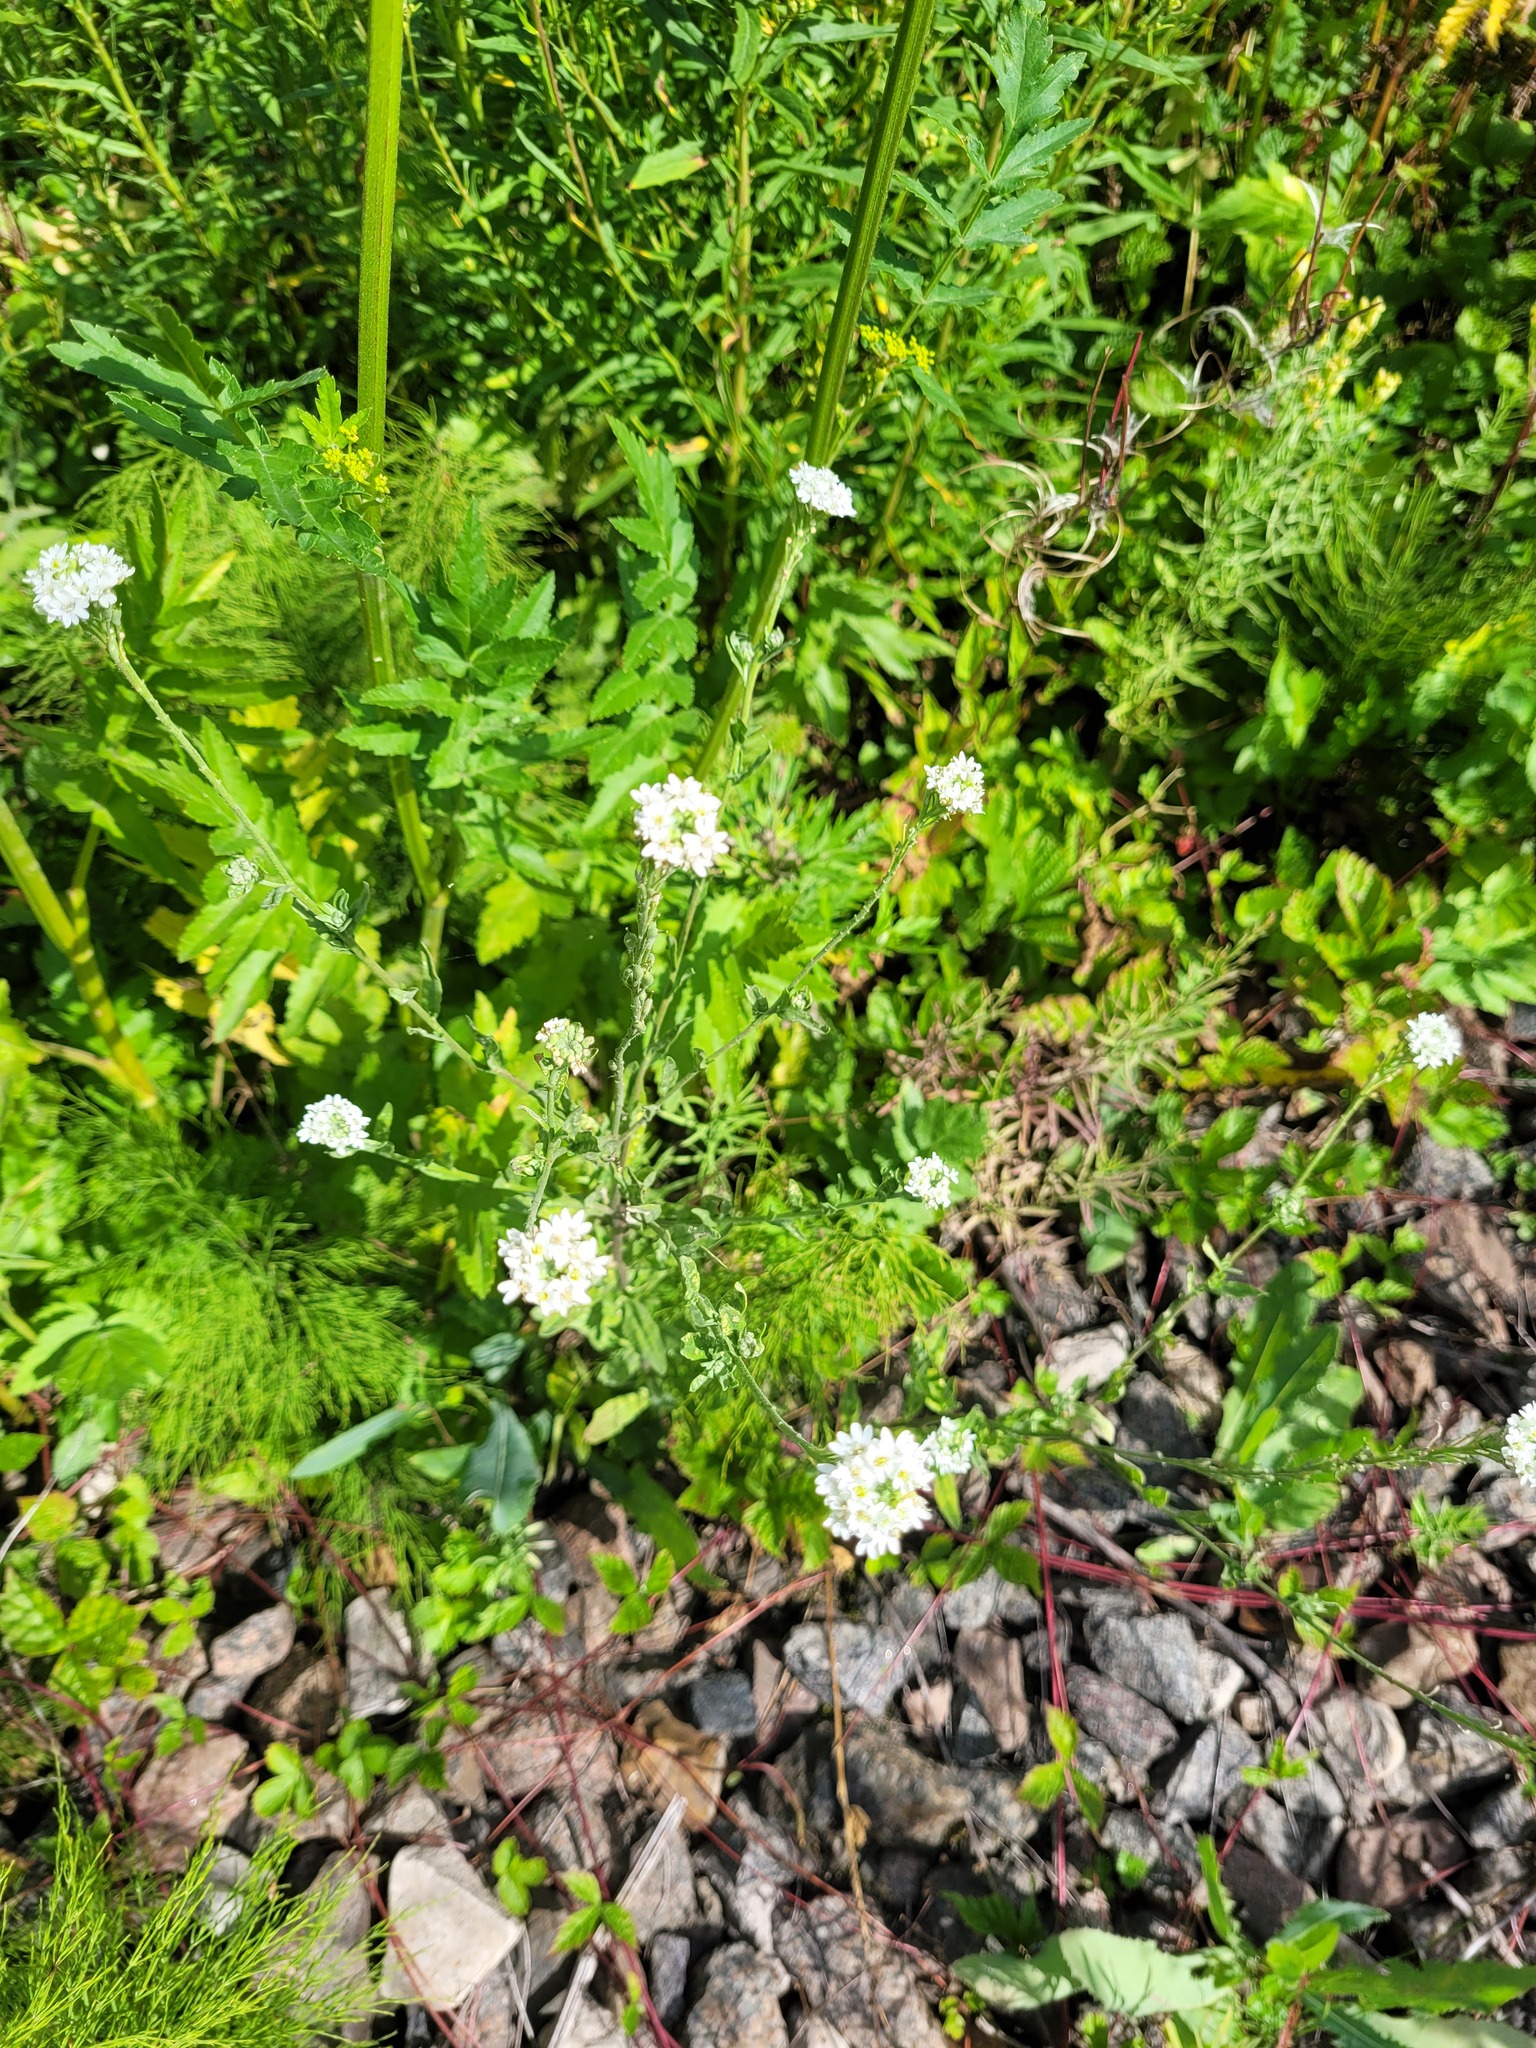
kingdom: Plantae
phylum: Tracheophyta
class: Magnoliopsida
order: Brassicales
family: Brassicaceae
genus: Berteroa
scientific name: Berteroa incana
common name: Hoary alison
